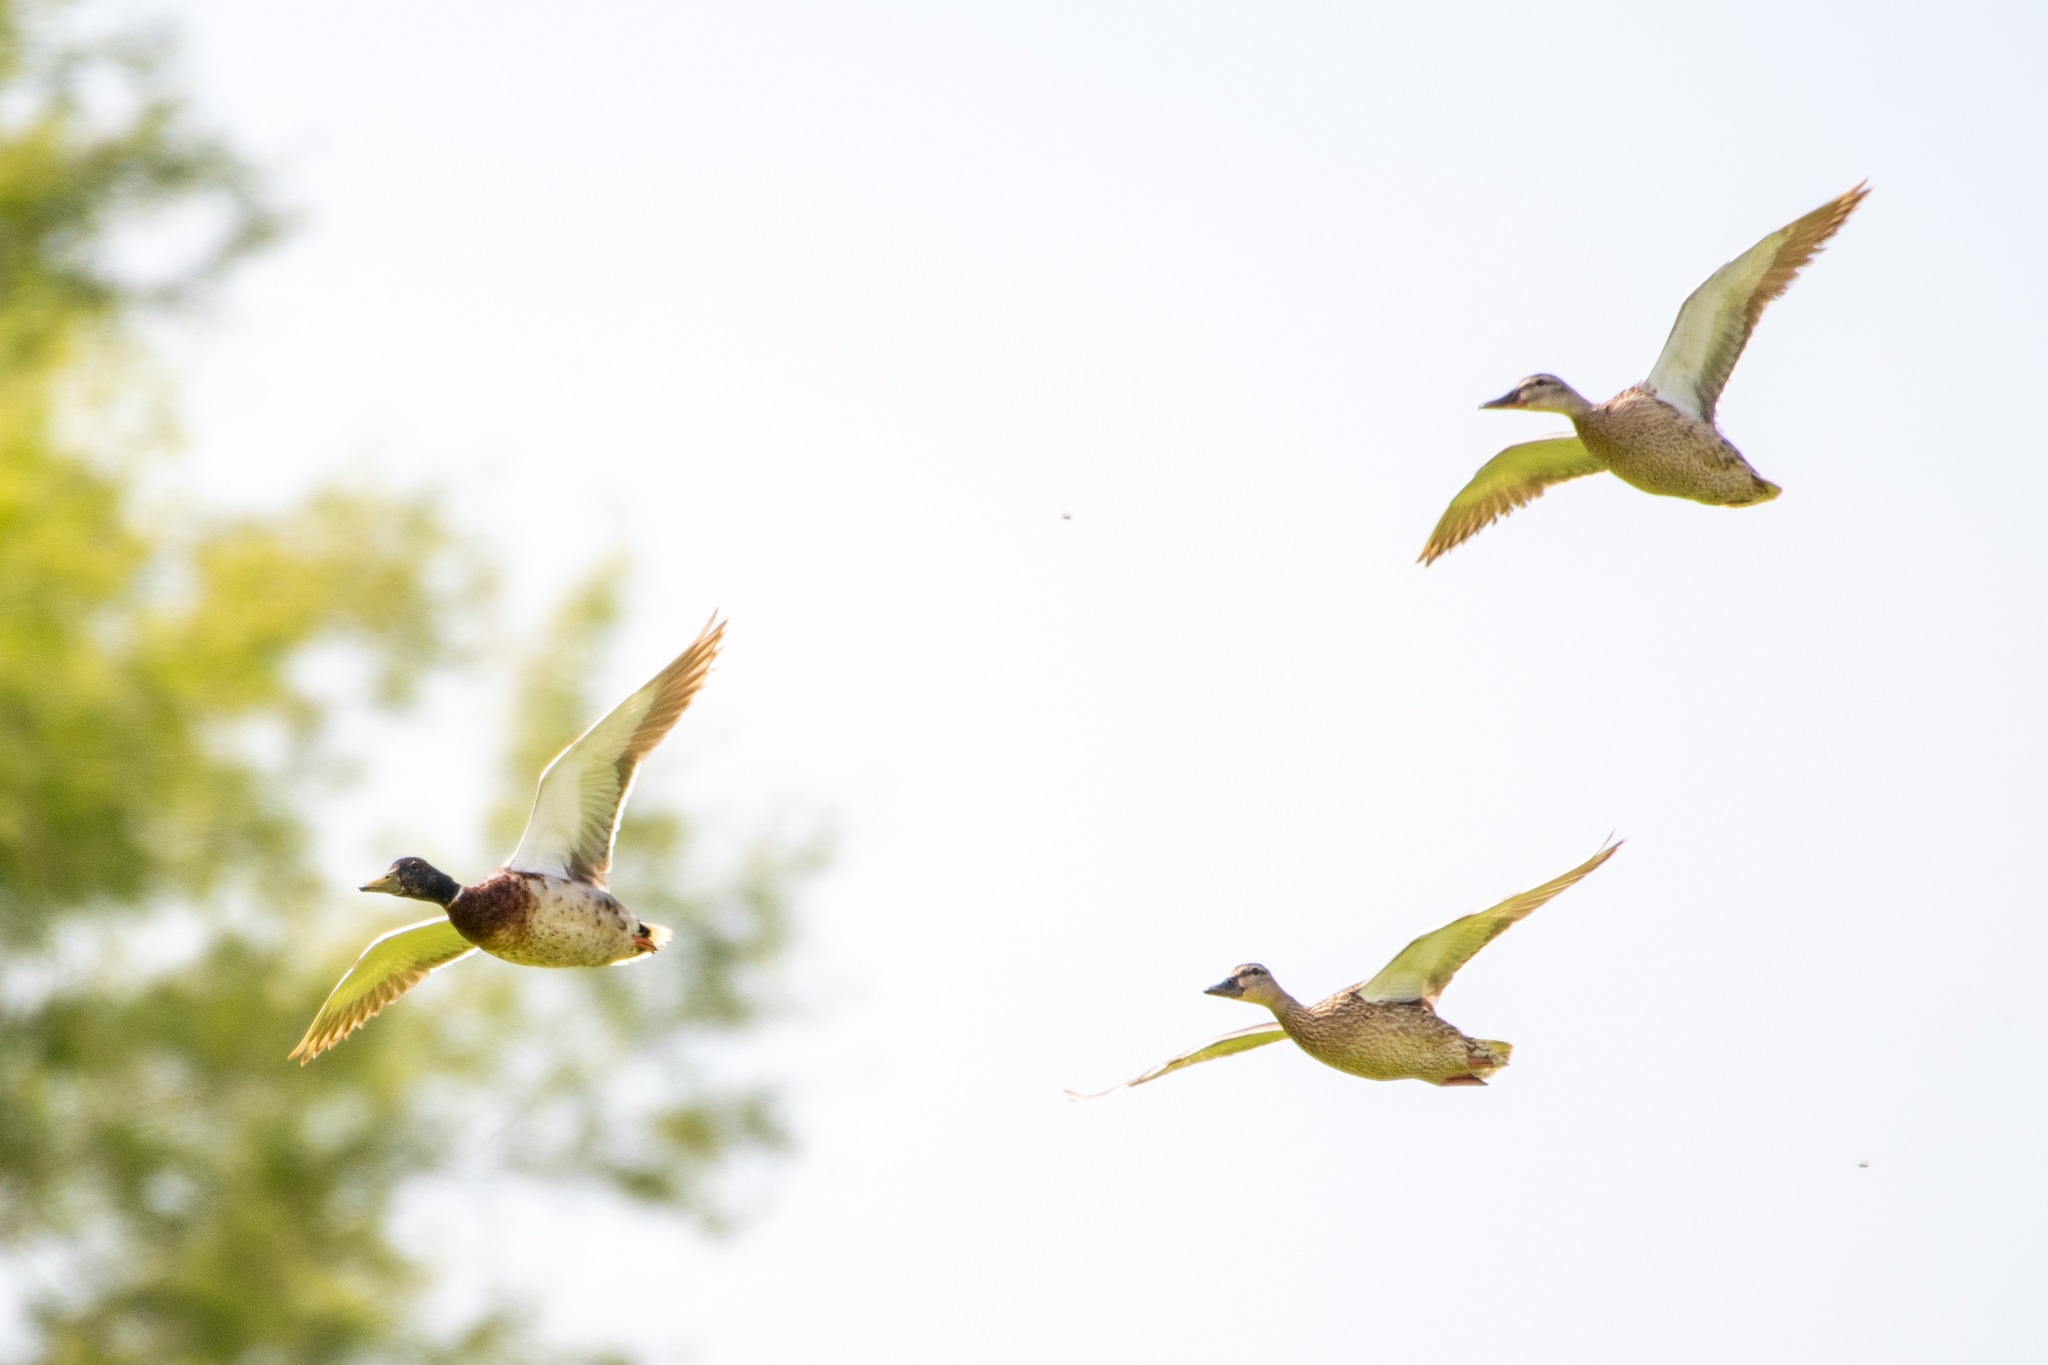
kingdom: Animalia
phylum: Chordata
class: Aves
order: Anseriformes
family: Anatidae
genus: Anas
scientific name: Anas platyrhynchos
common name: Mallard
